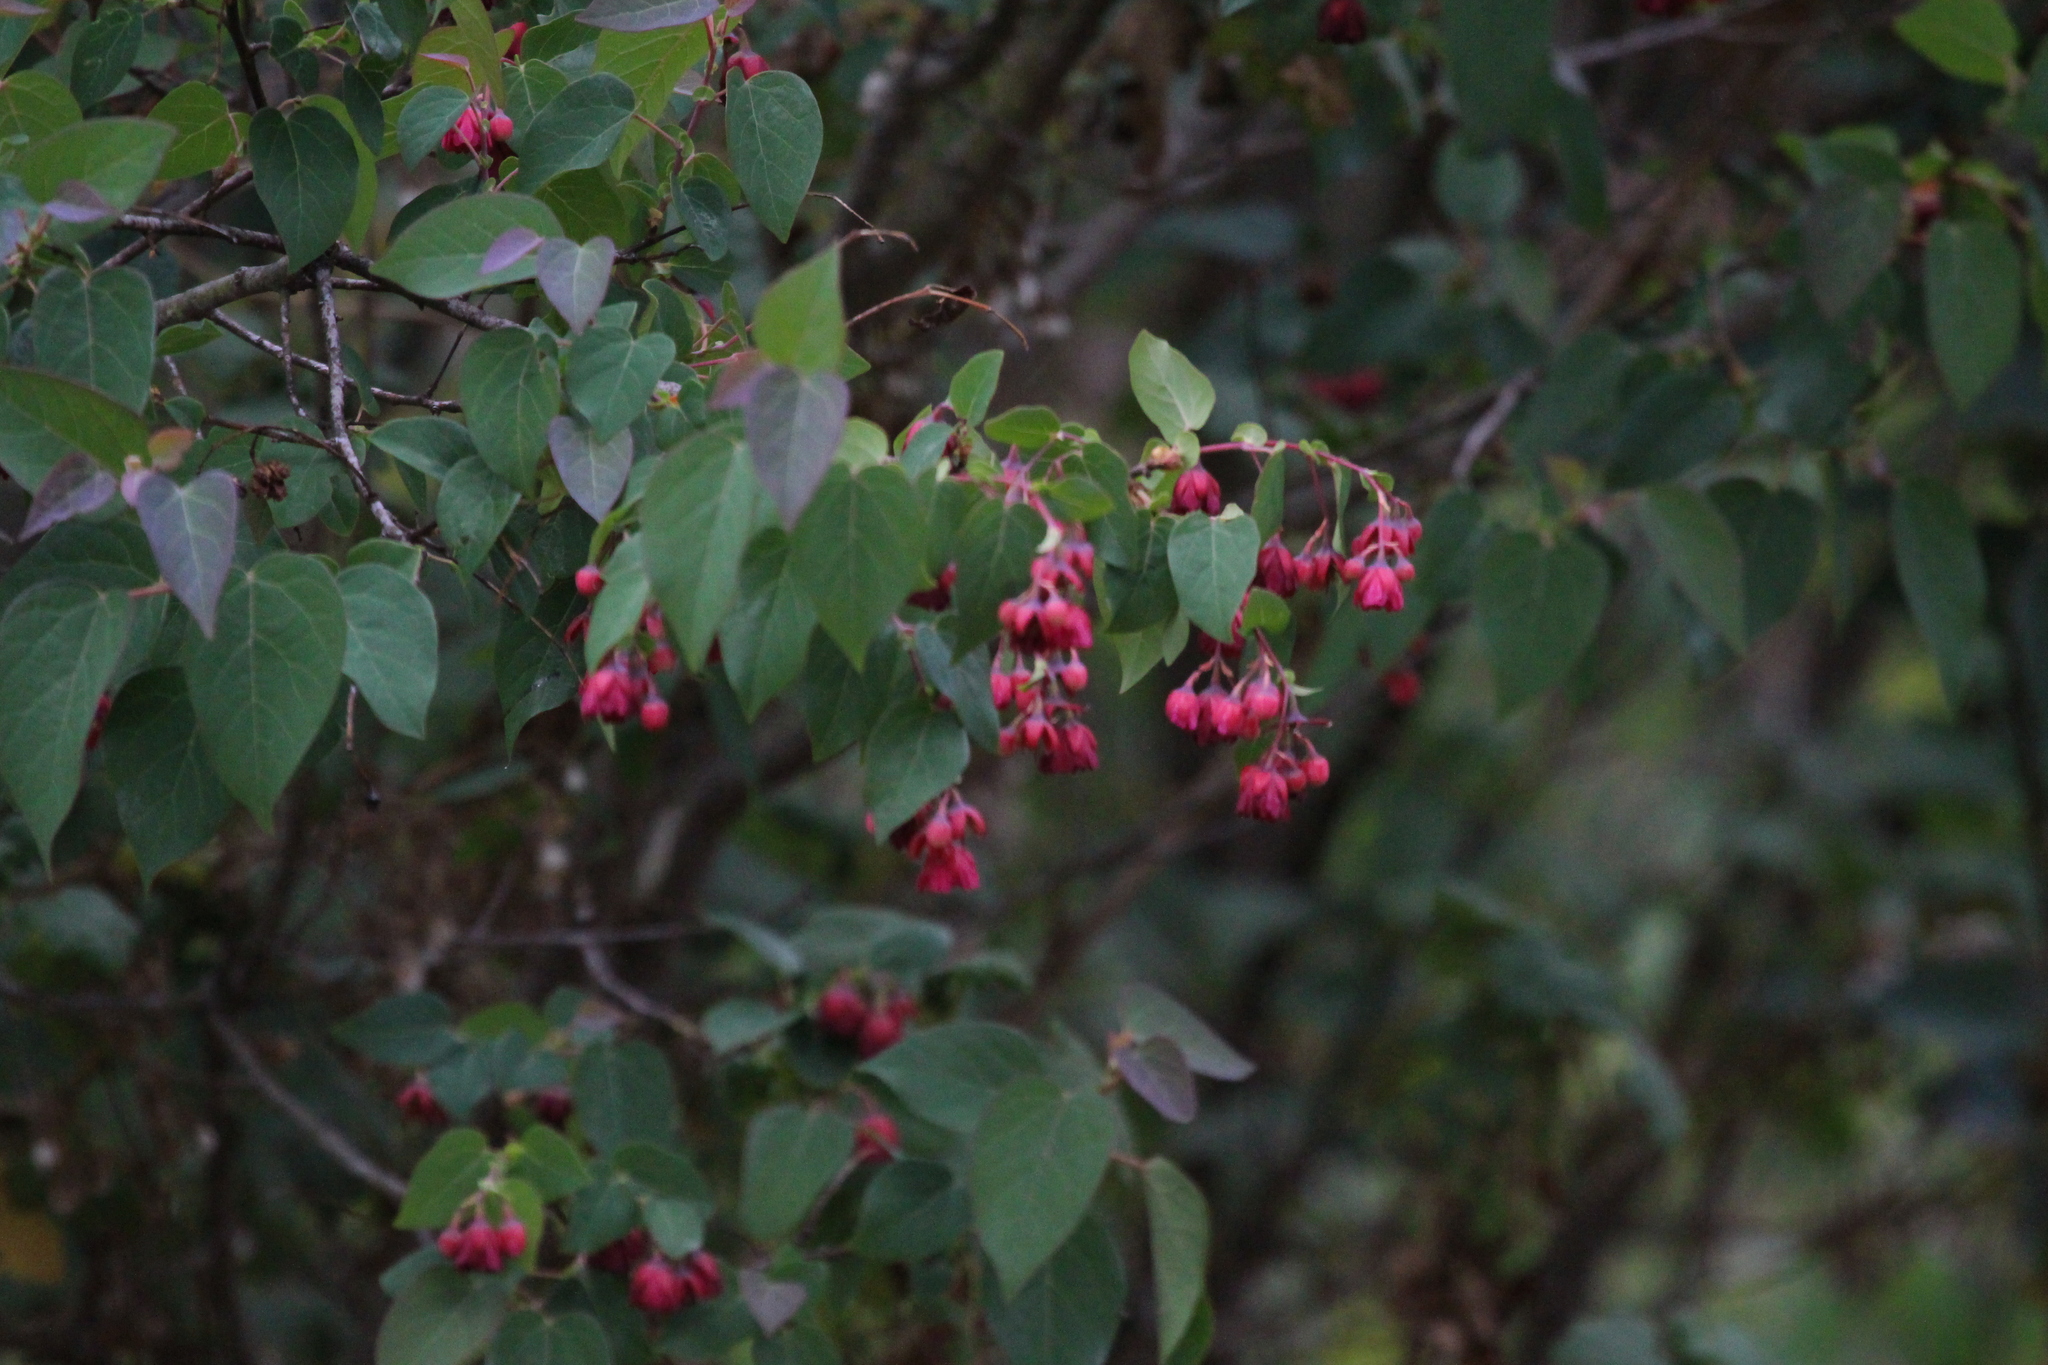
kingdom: Plantae
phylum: Tracheophyta
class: Magnoliopsida
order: Oxalidales
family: Elaeocarpaceae
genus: Vallea
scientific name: Vallea stipularis
